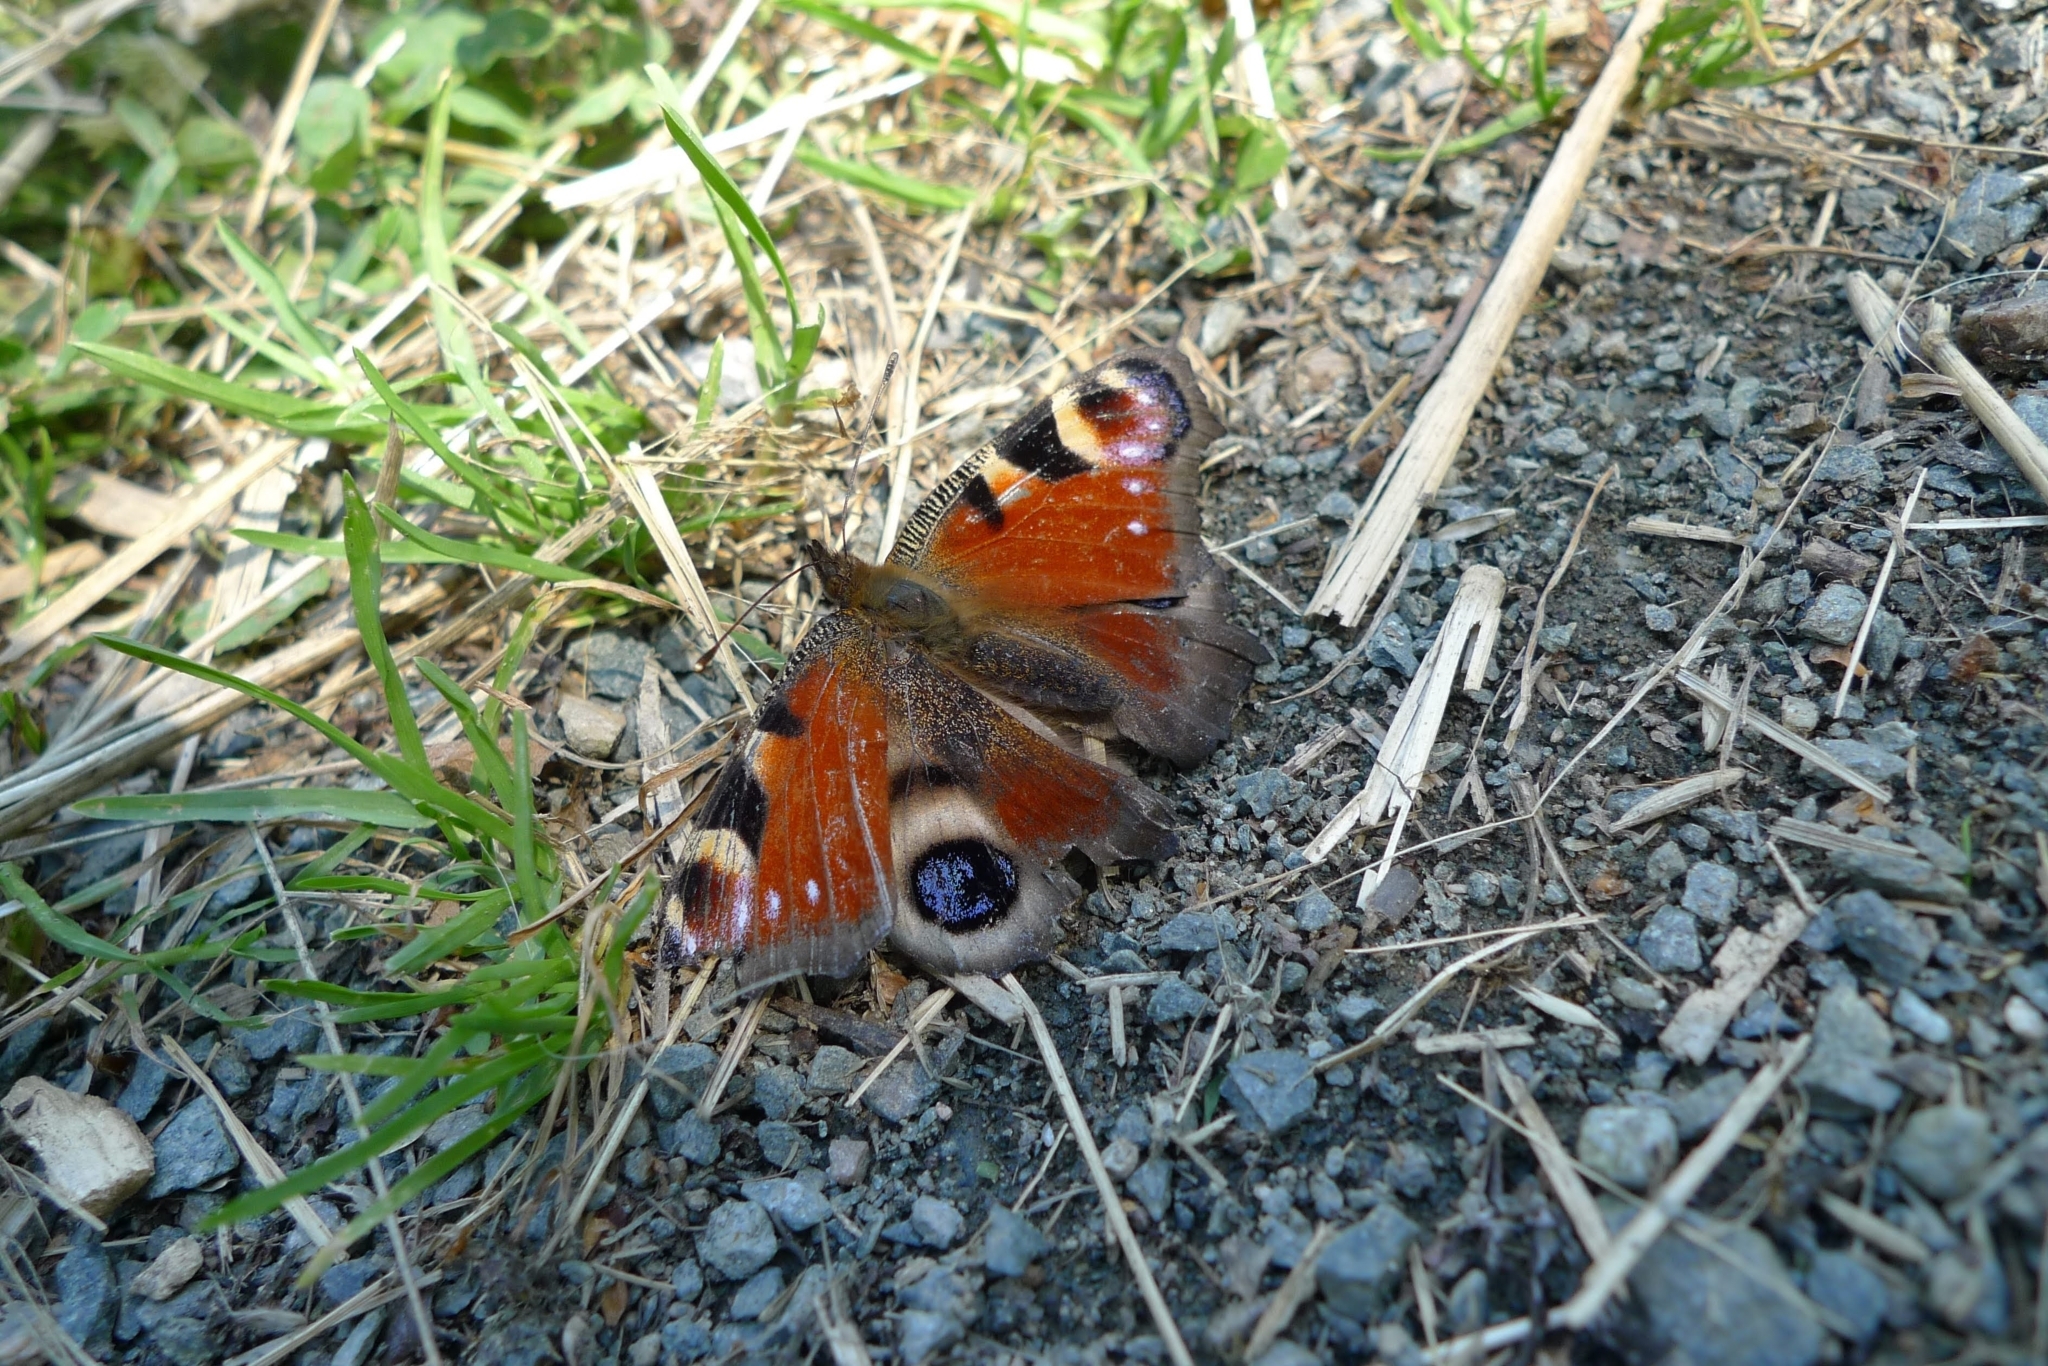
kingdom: Animalia
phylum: Arthropoda
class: Insecta
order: Lepidoptera
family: Nymphalidae
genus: Aglais
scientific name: Aglais io
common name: Peacock
